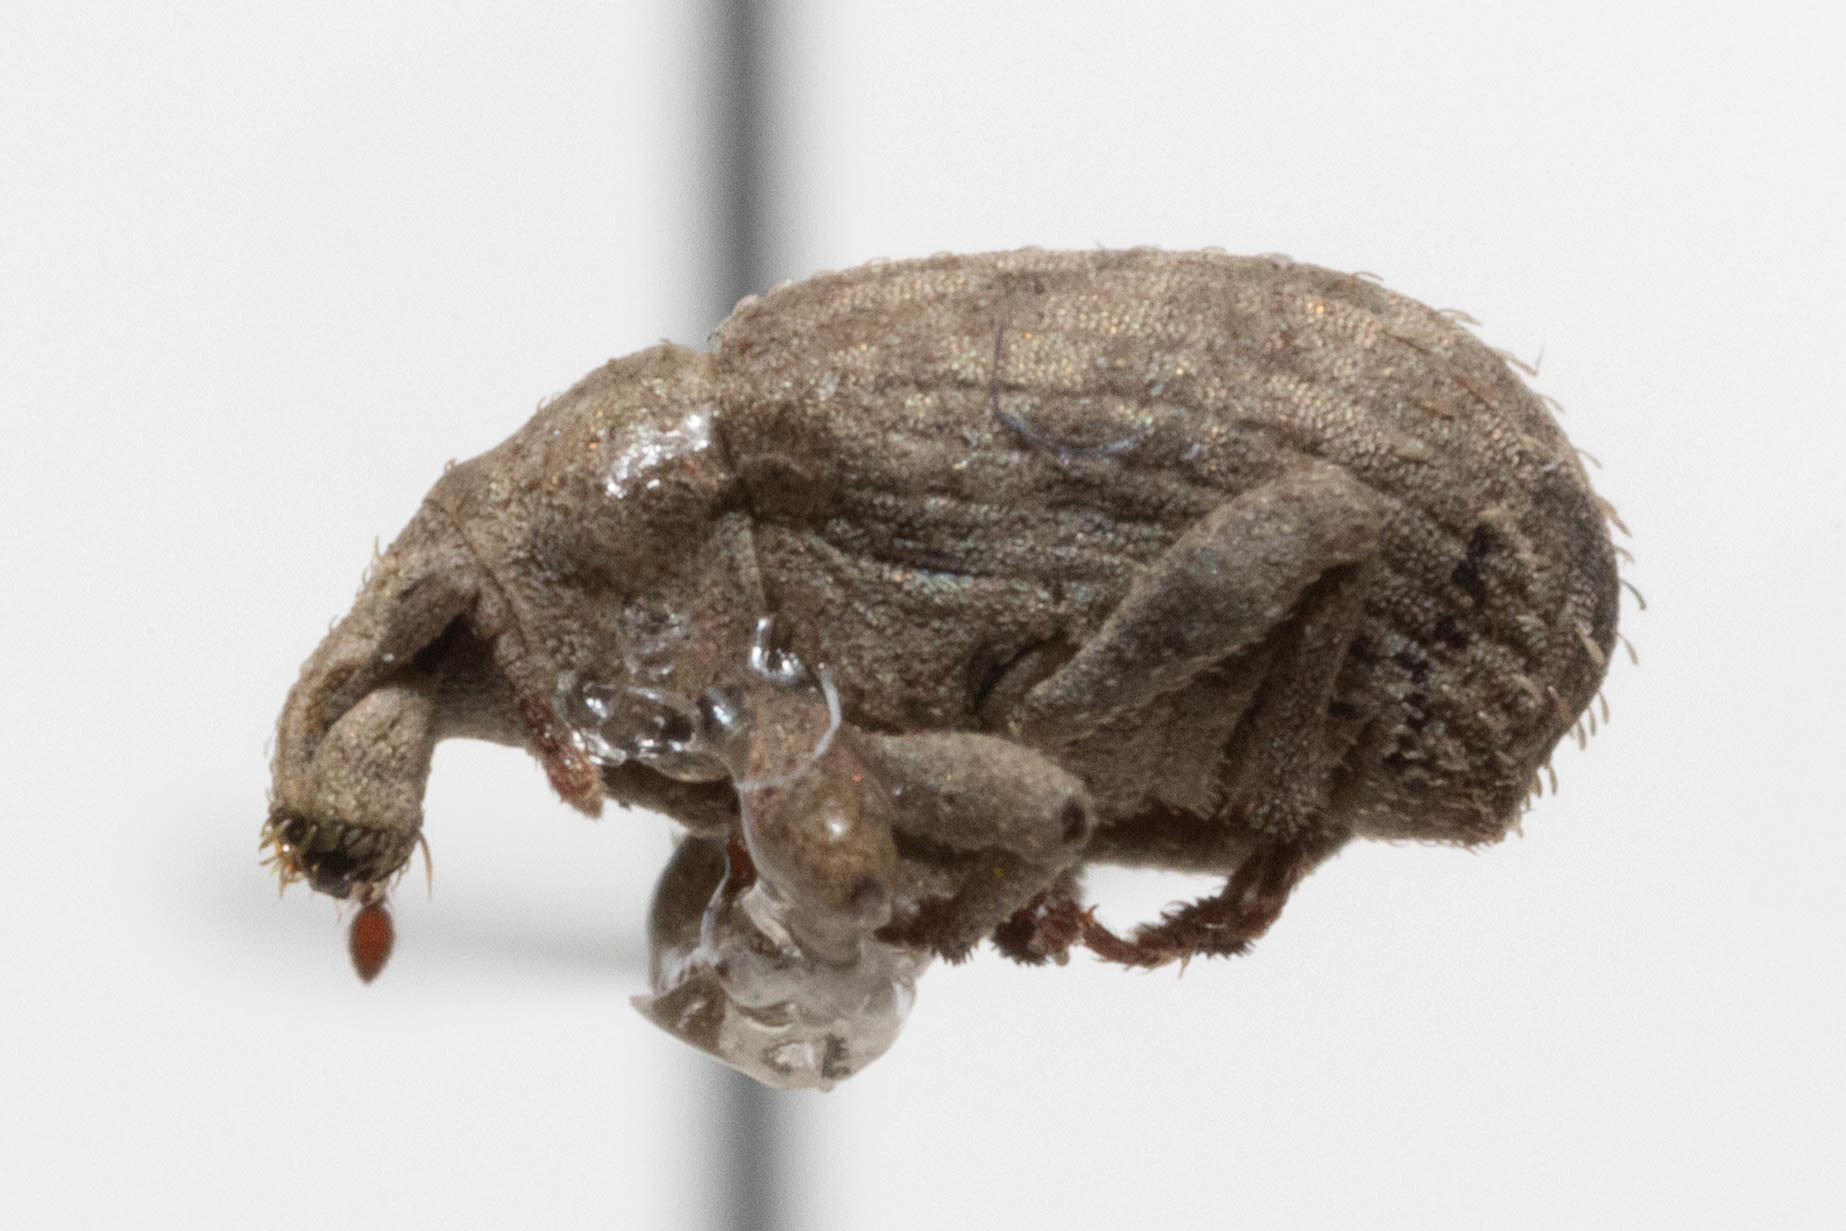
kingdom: Animalia
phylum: Arthropoda
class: Insecta
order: Coleoptera
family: Curculionidae
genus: Romualdius
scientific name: Romualdius scaber
